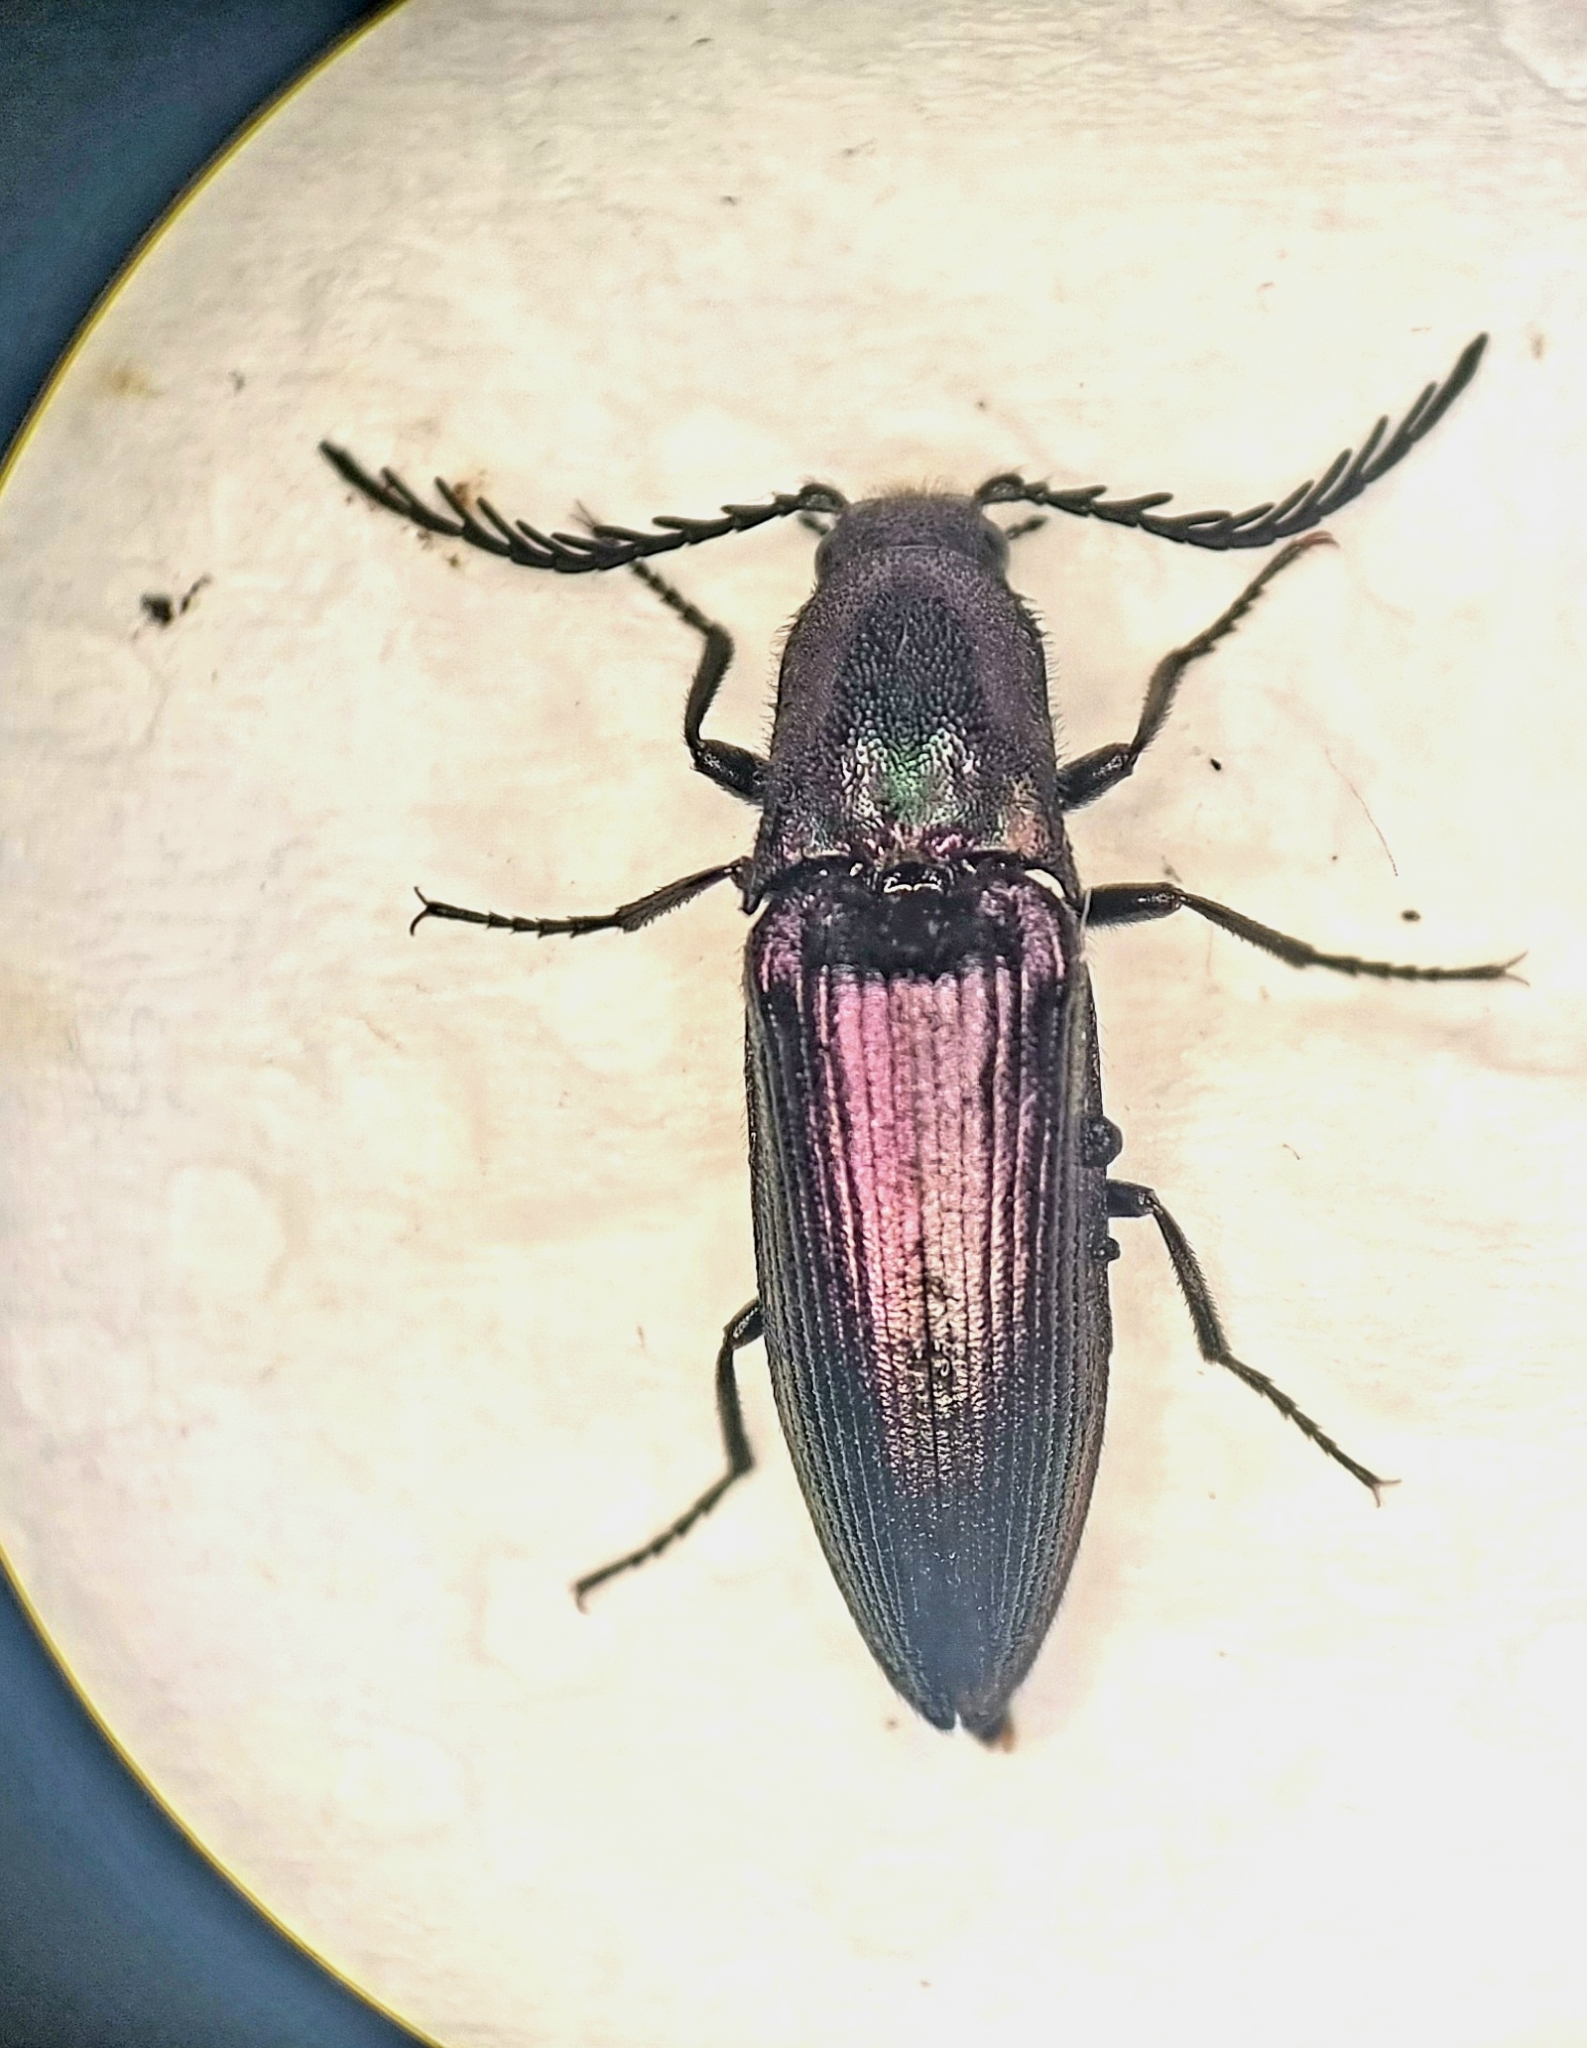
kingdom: Animalia
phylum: Arthropoda
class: Insecta
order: Coleoptera
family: Elateridae
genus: Ctenicera
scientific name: Ctenicera cuprea
